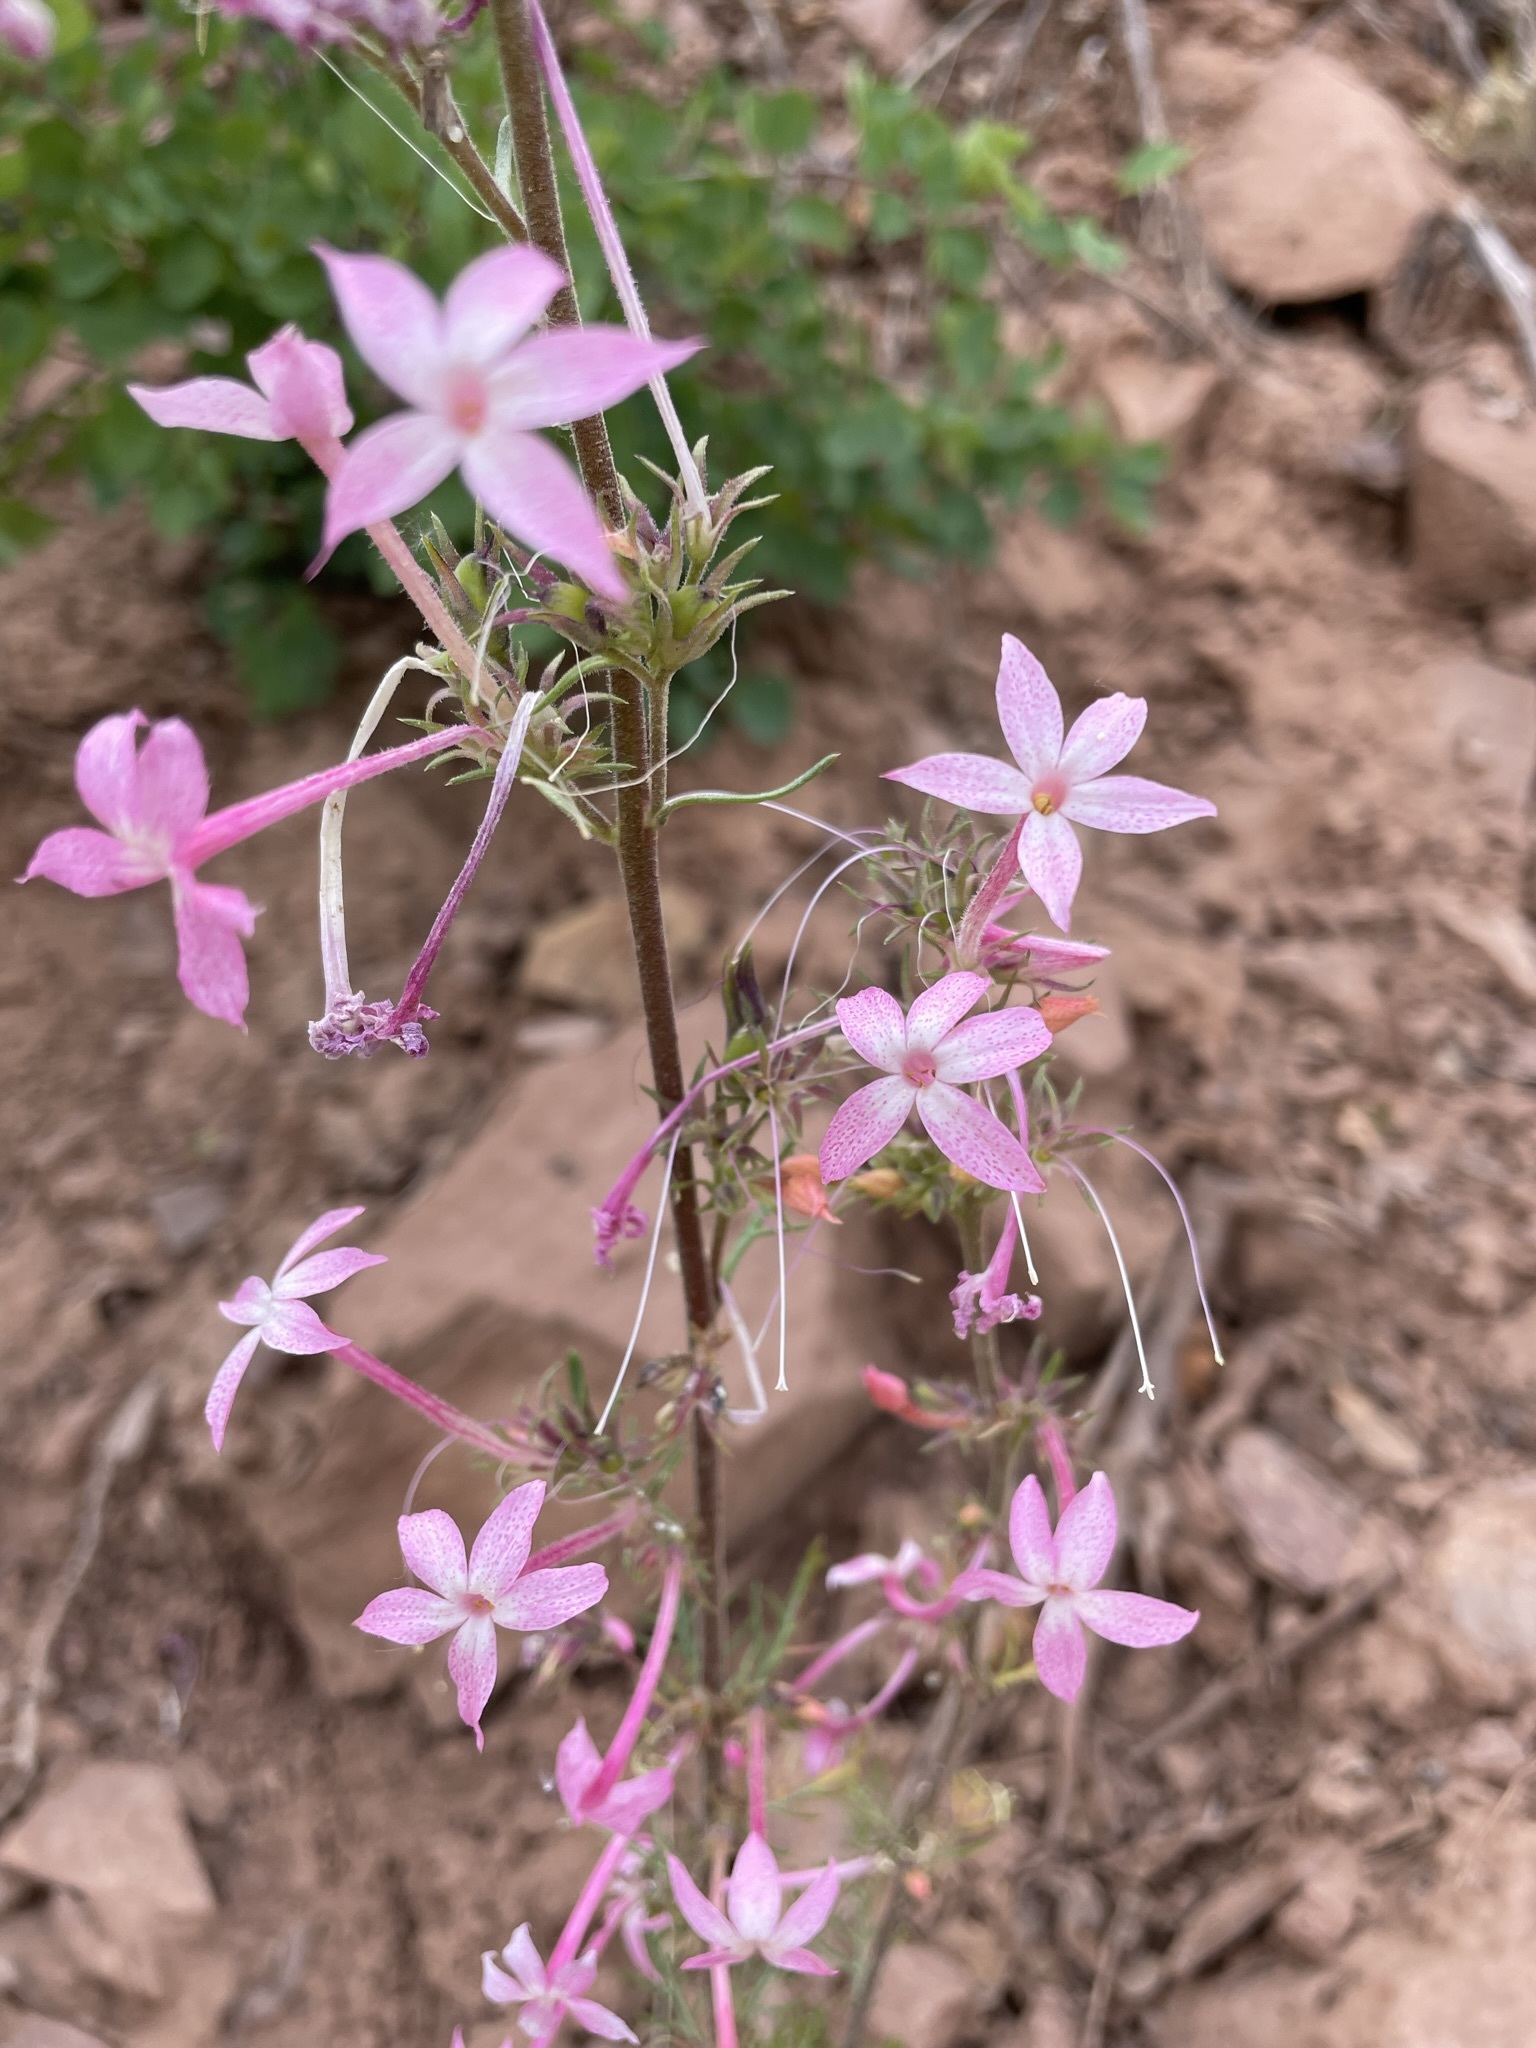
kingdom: Plantae
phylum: Tracheophyta
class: Magnoliopsida
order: Ericales
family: Polemoniaceae
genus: Ipomopsis
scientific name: Ipomopsis tenuituba
